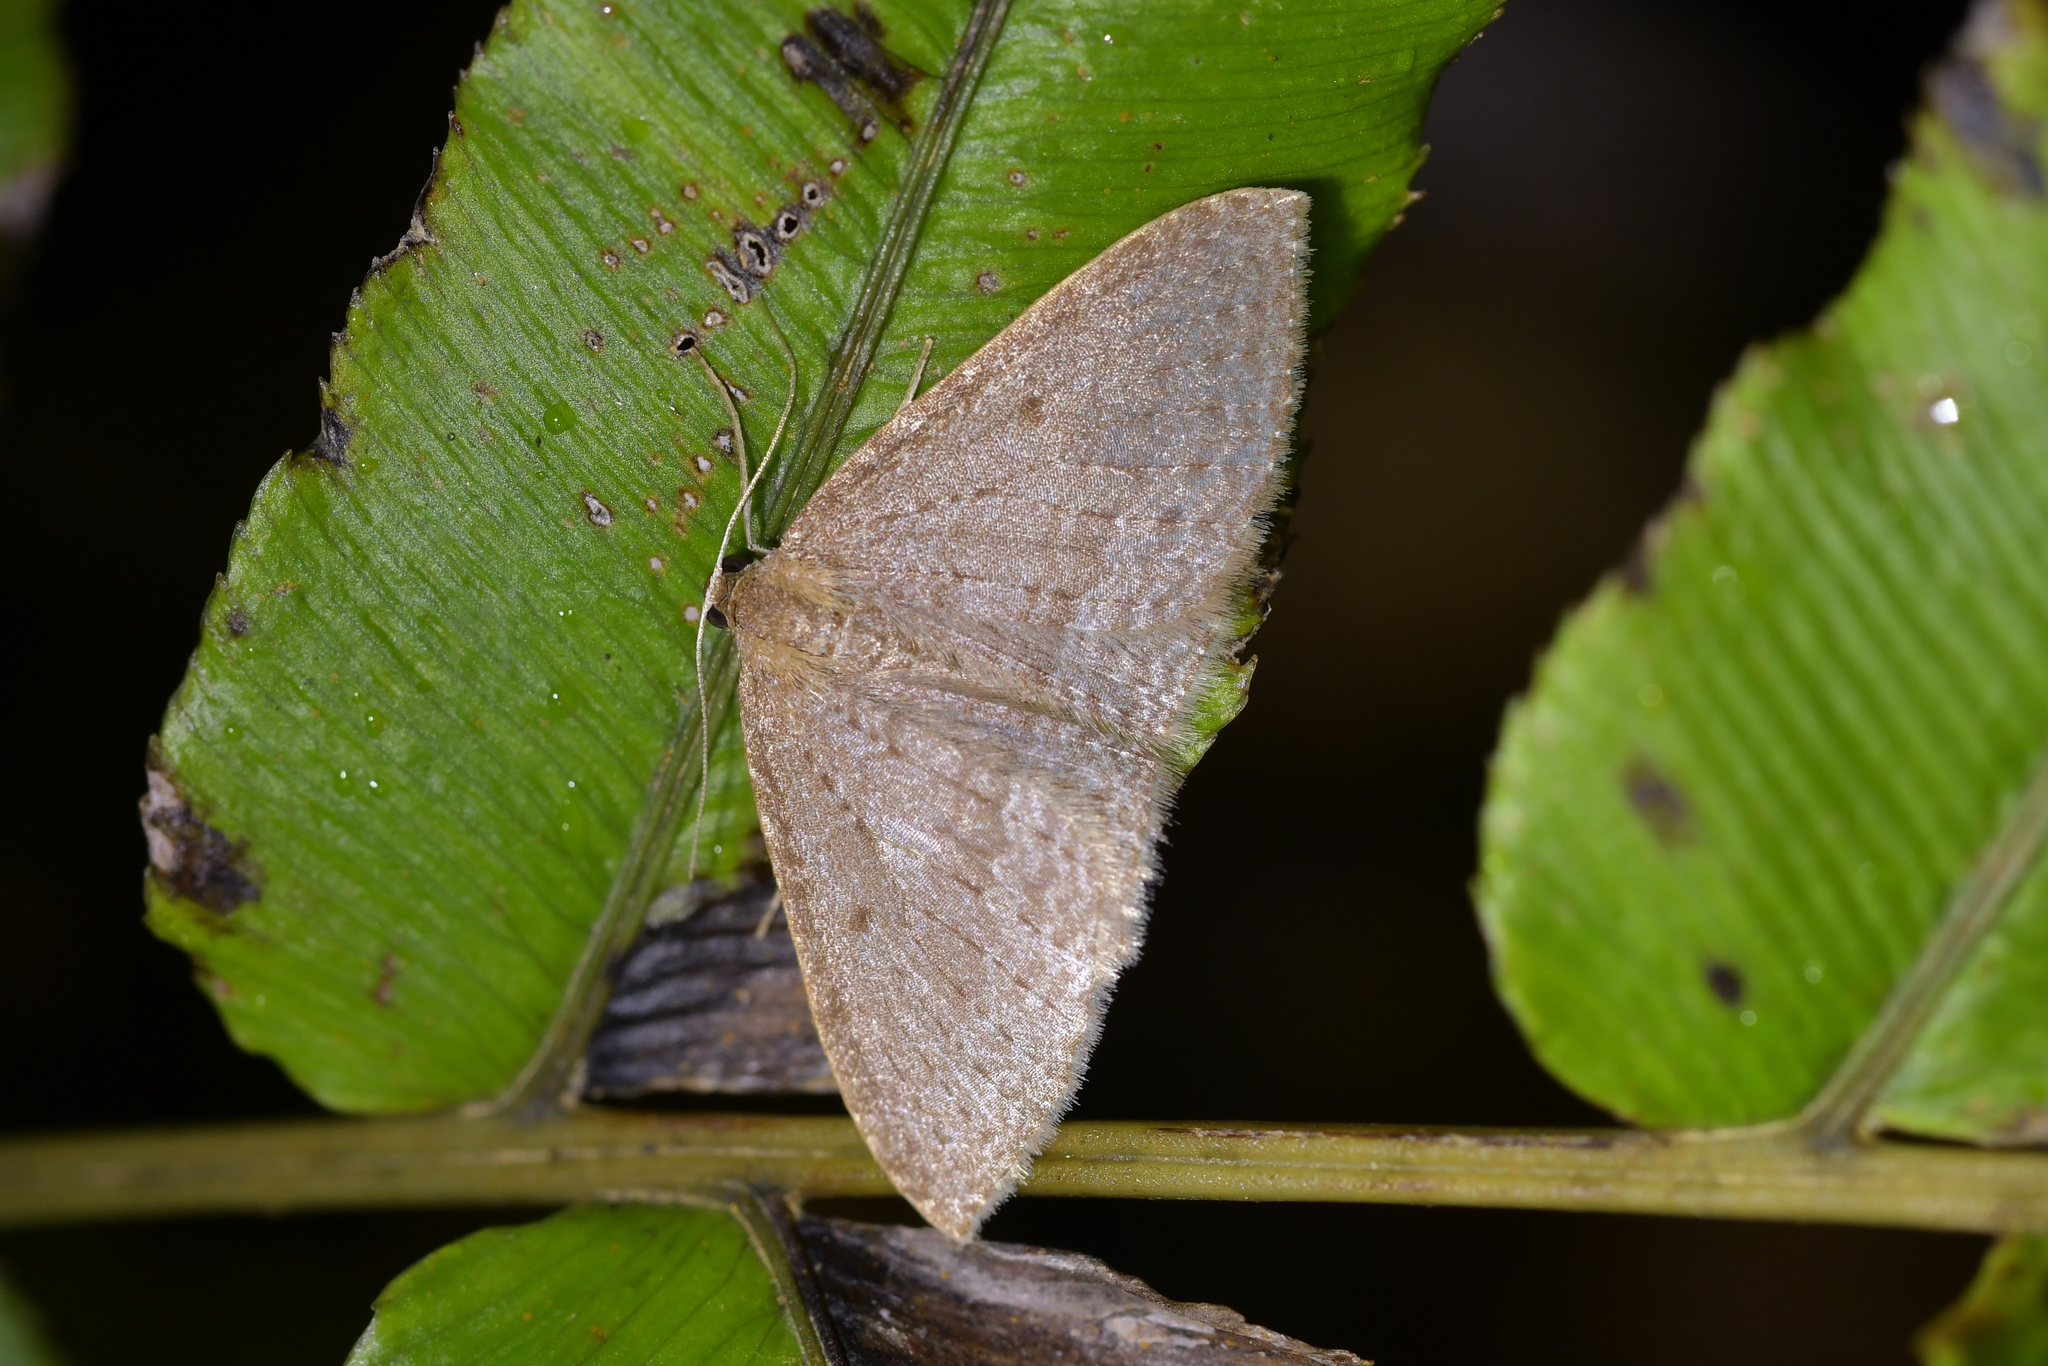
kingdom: Animalia
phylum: Arthropoda
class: Insecta
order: Lepidoptera
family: Geometridae
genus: Poecilasthena
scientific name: Poecilasthena subpurpureata
